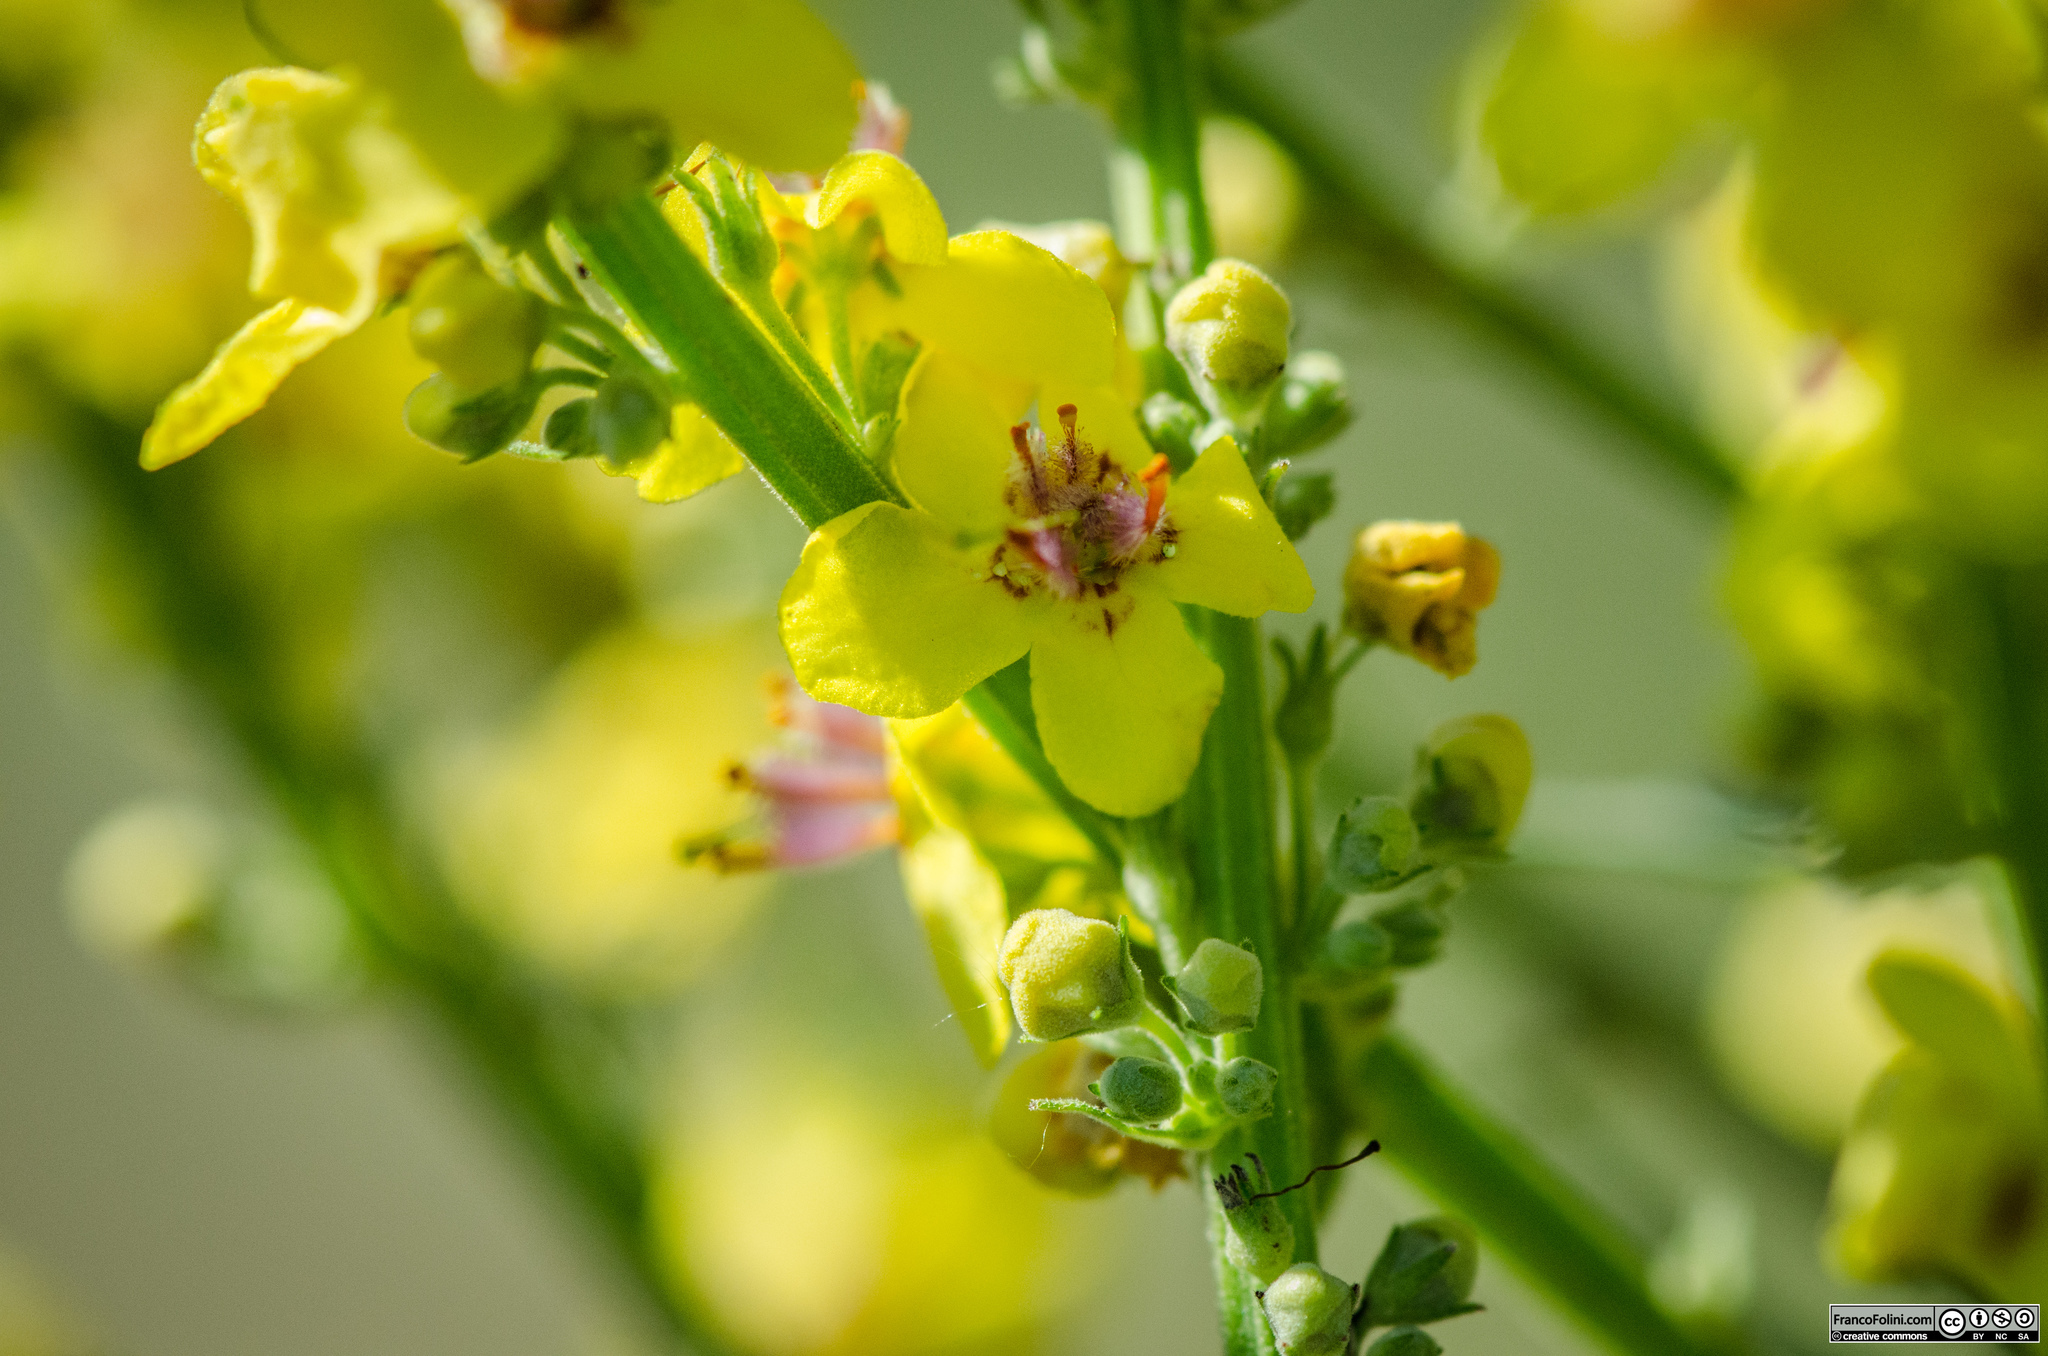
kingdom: Plantae
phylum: Tracheophyta
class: Magnoliopsida
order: Lamiales
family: Scrophulariaceae
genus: Verbascum
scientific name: Verbascum lychnitis
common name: White mullein
